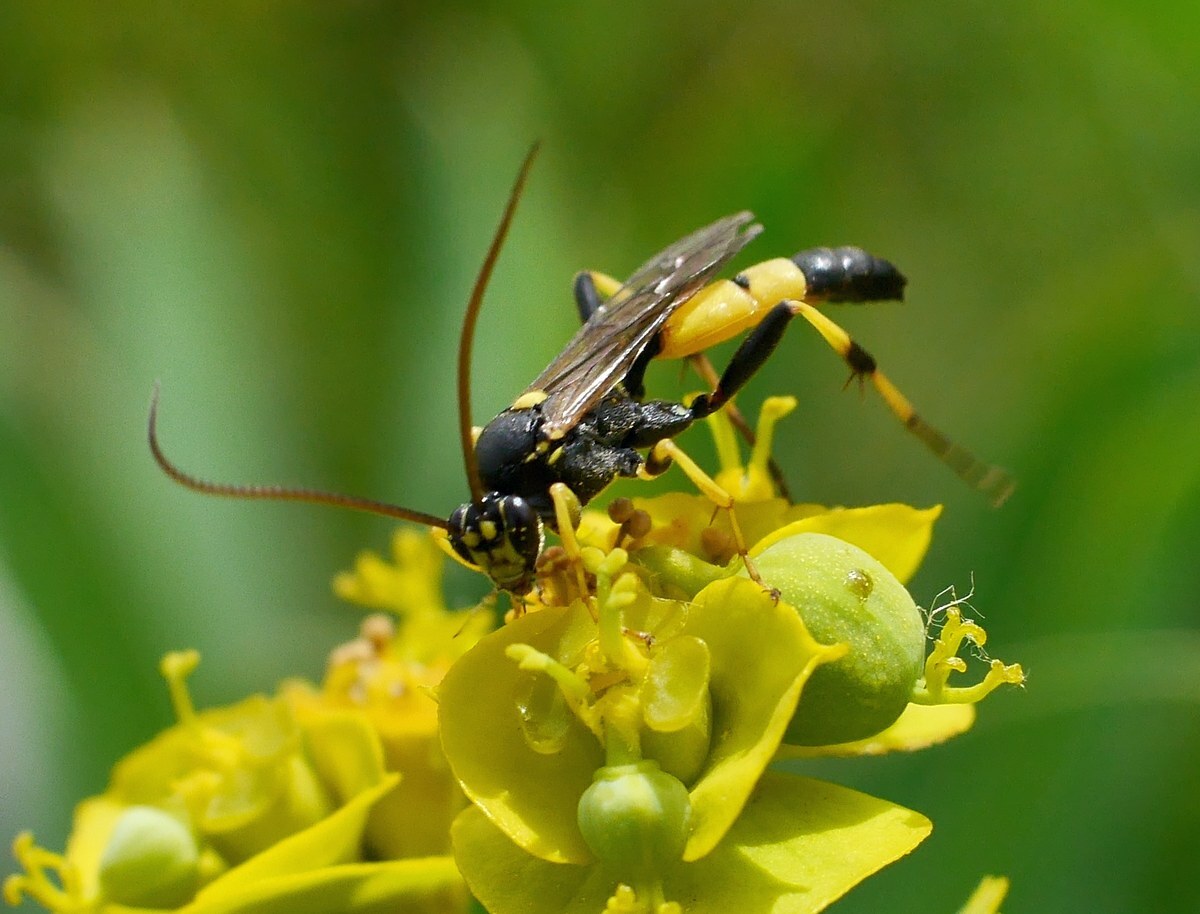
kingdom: Animalia
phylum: Arthropoda
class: Insecta
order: Hymenoptera
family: Ichneumonidae
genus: Spilothyrateles
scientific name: Spilothyrateles illuminatorius
